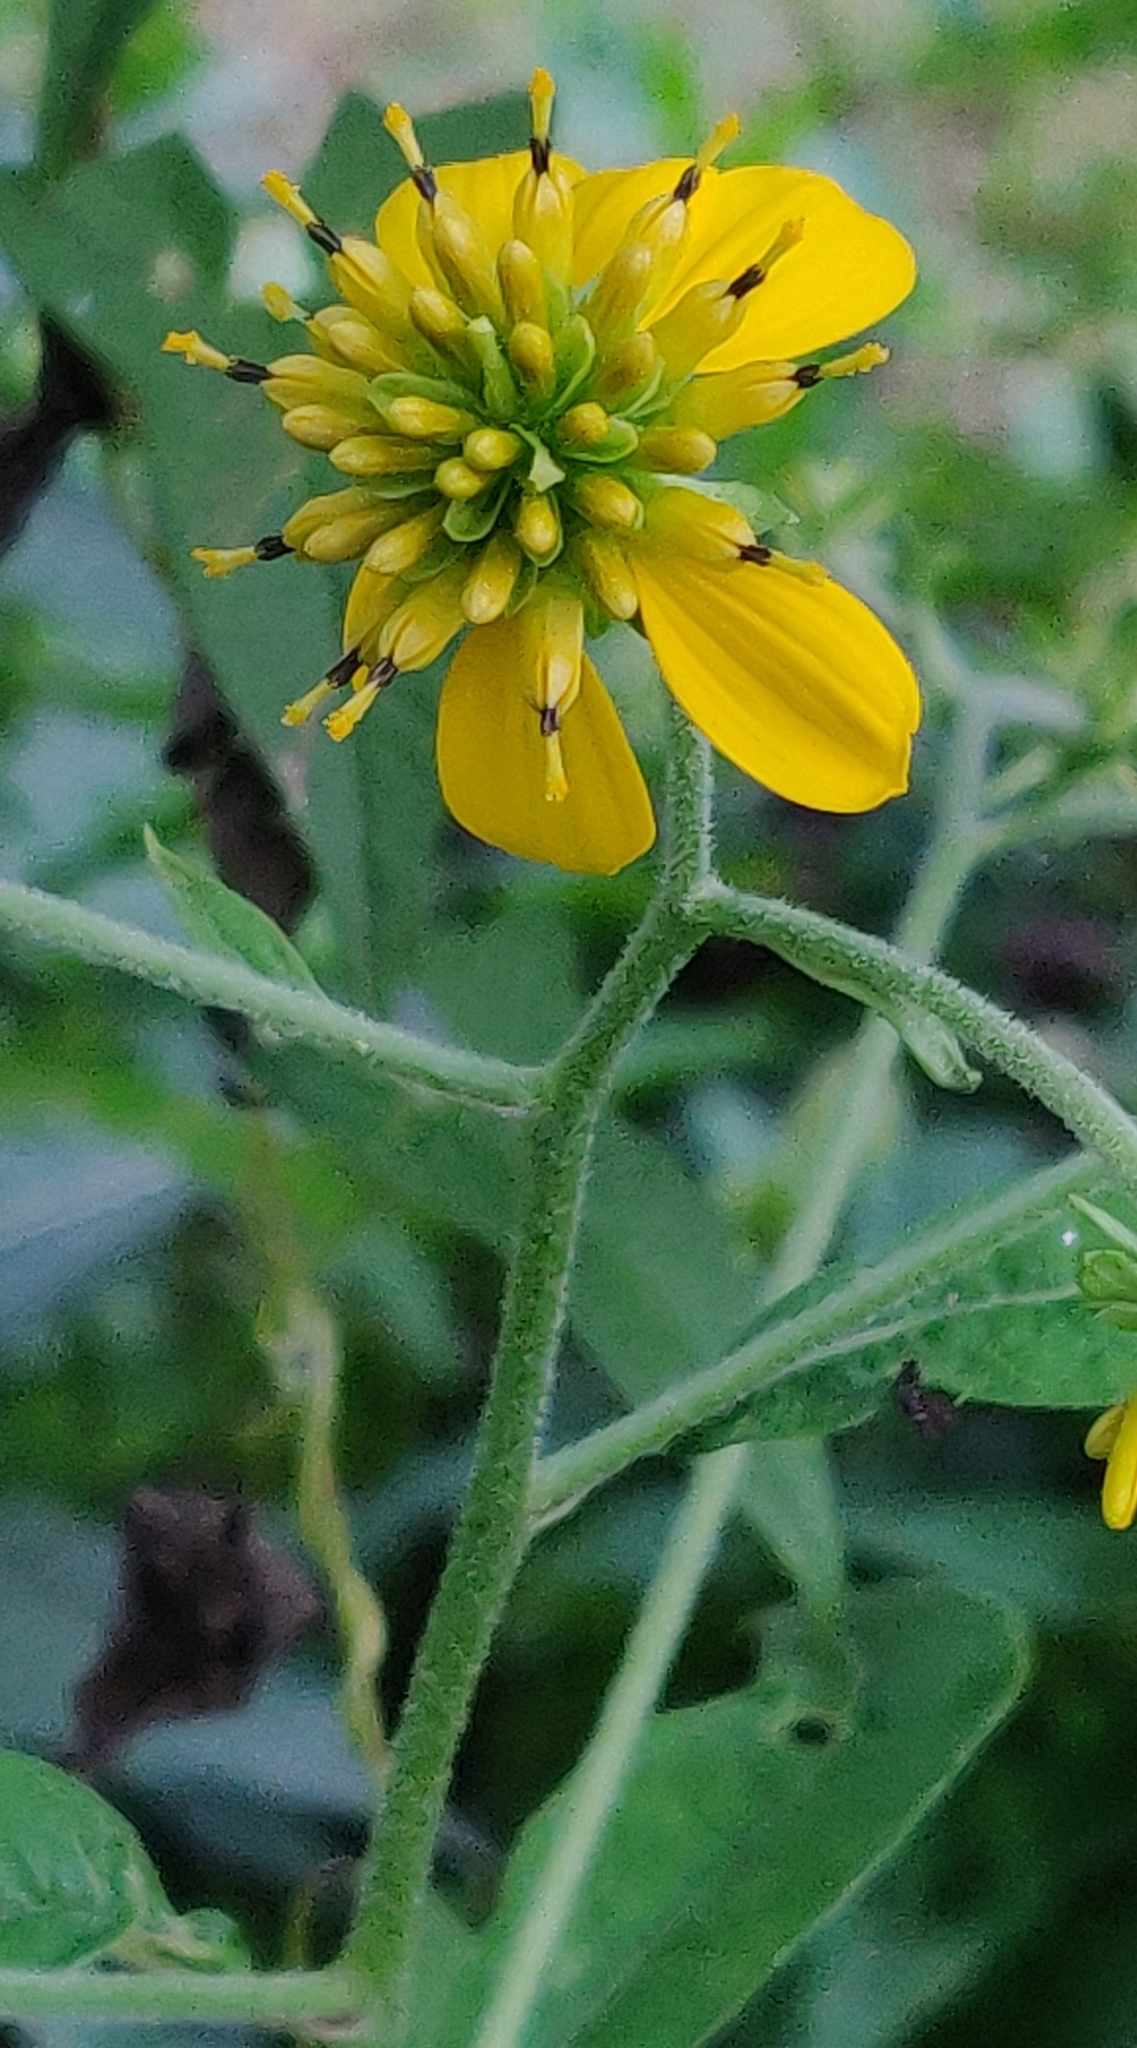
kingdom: Plantae
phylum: Tracheophyta
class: Magnoliopsida
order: Asterales
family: Asteraceae
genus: Verbesina
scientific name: Verbesina alternifolia
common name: Wingstem
